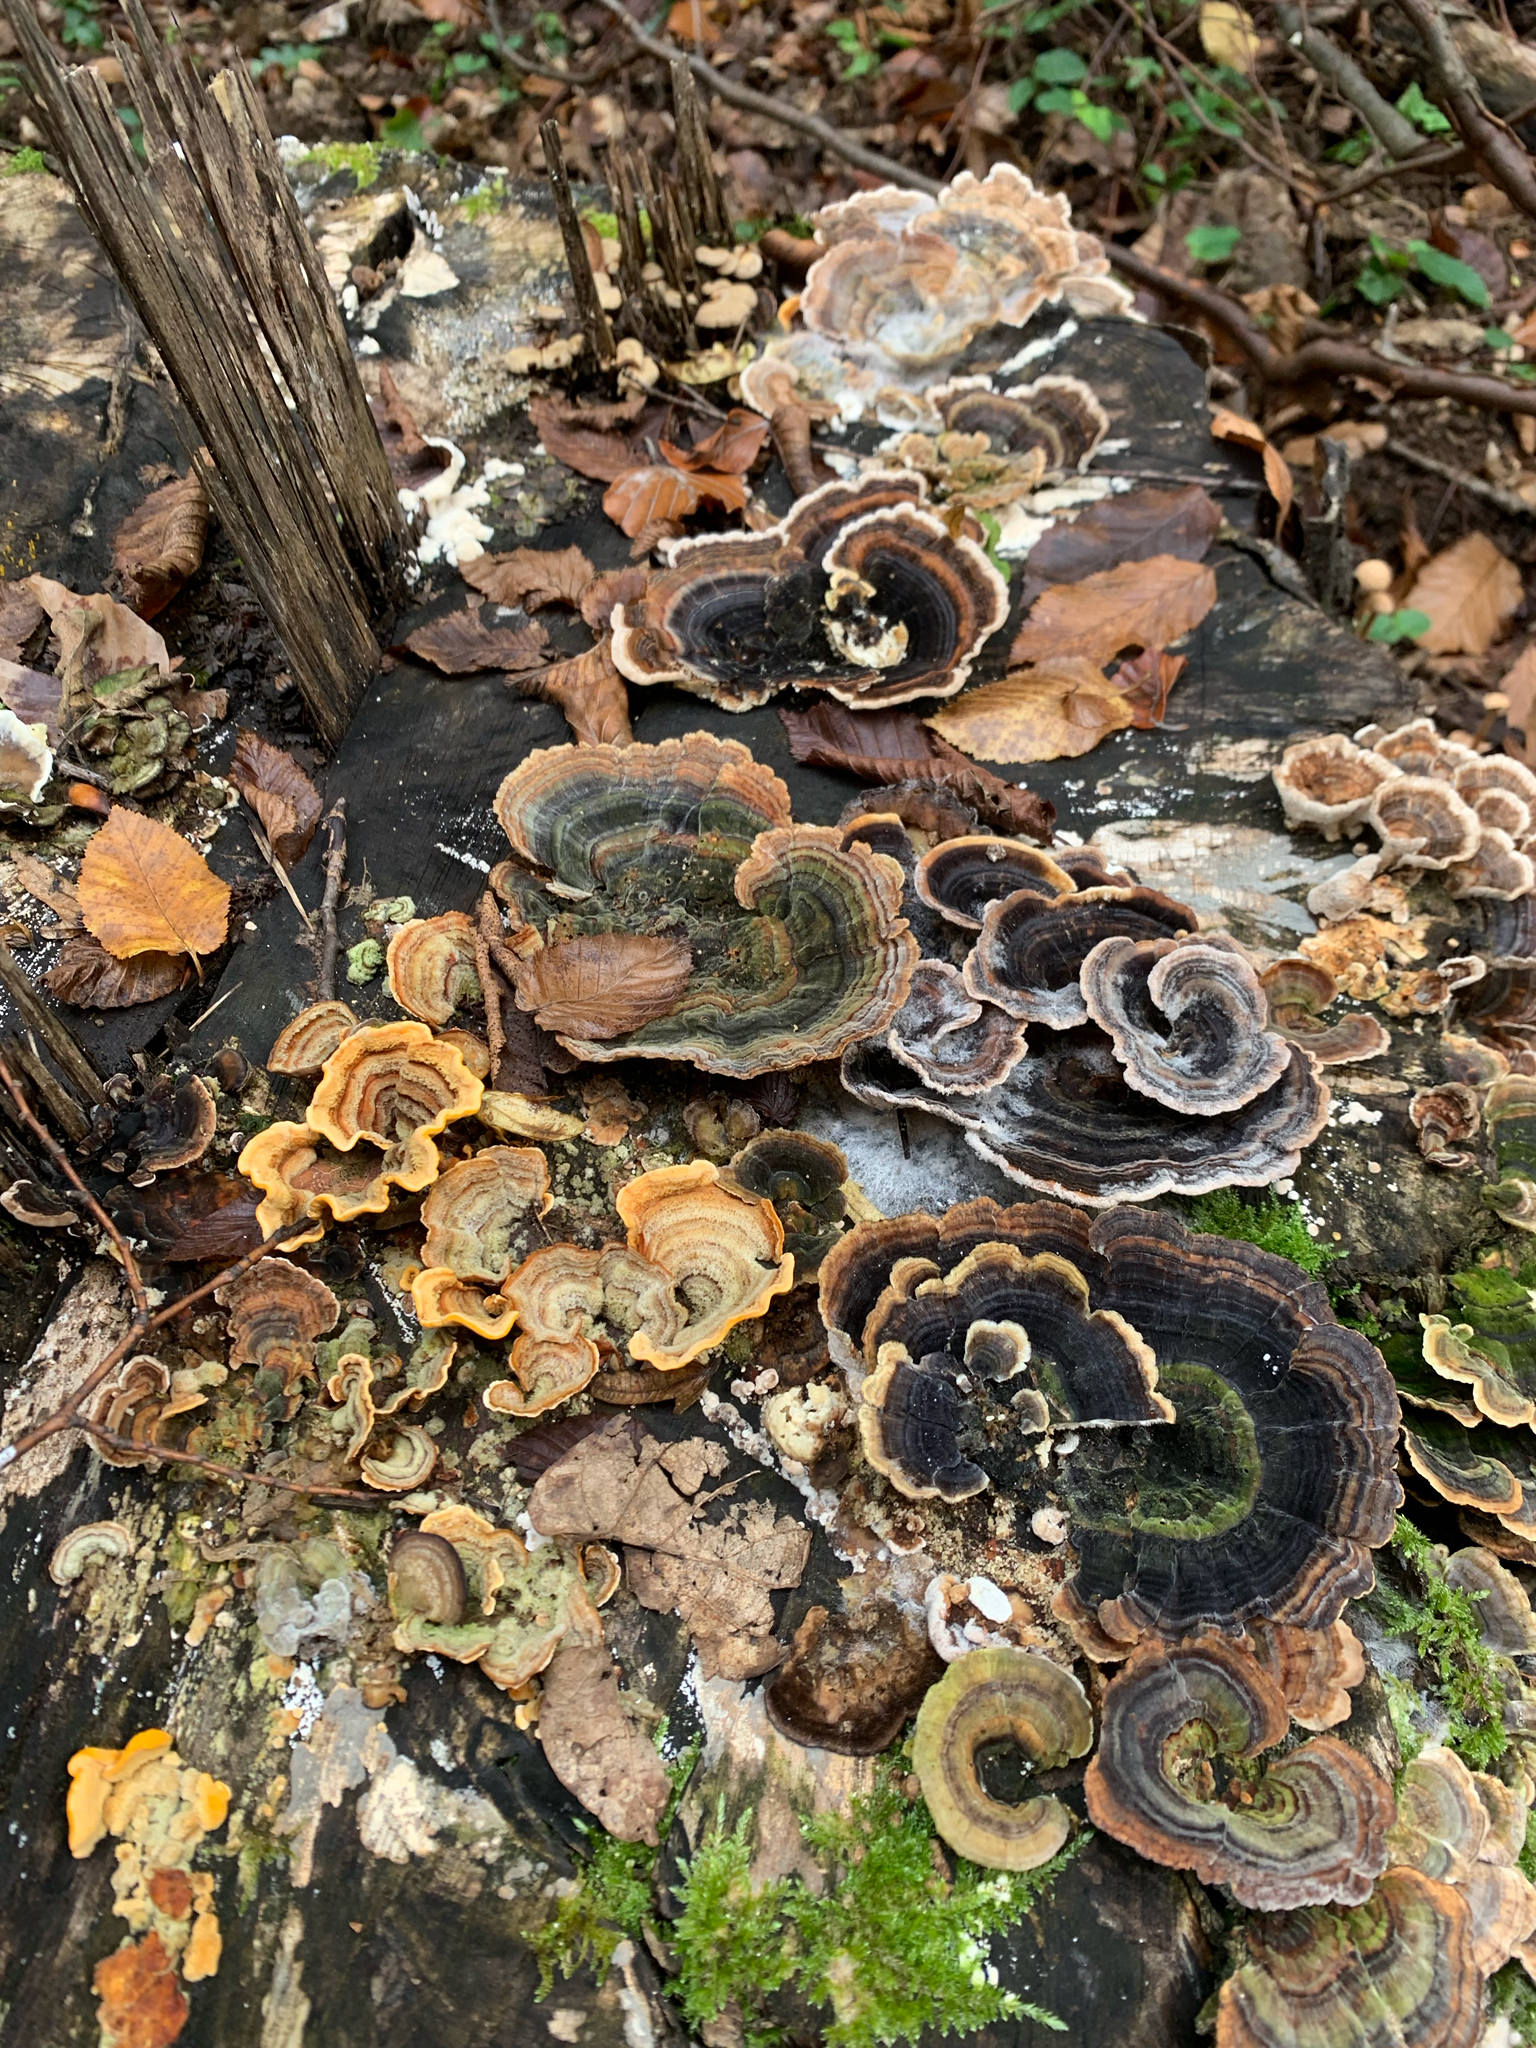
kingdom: Fungi
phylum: Basidiomycota
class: Agaricomycetes
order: Polyporales
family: Polyporaceae
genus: Trametes
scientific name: Trametes versicolor
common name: Turkeytail
